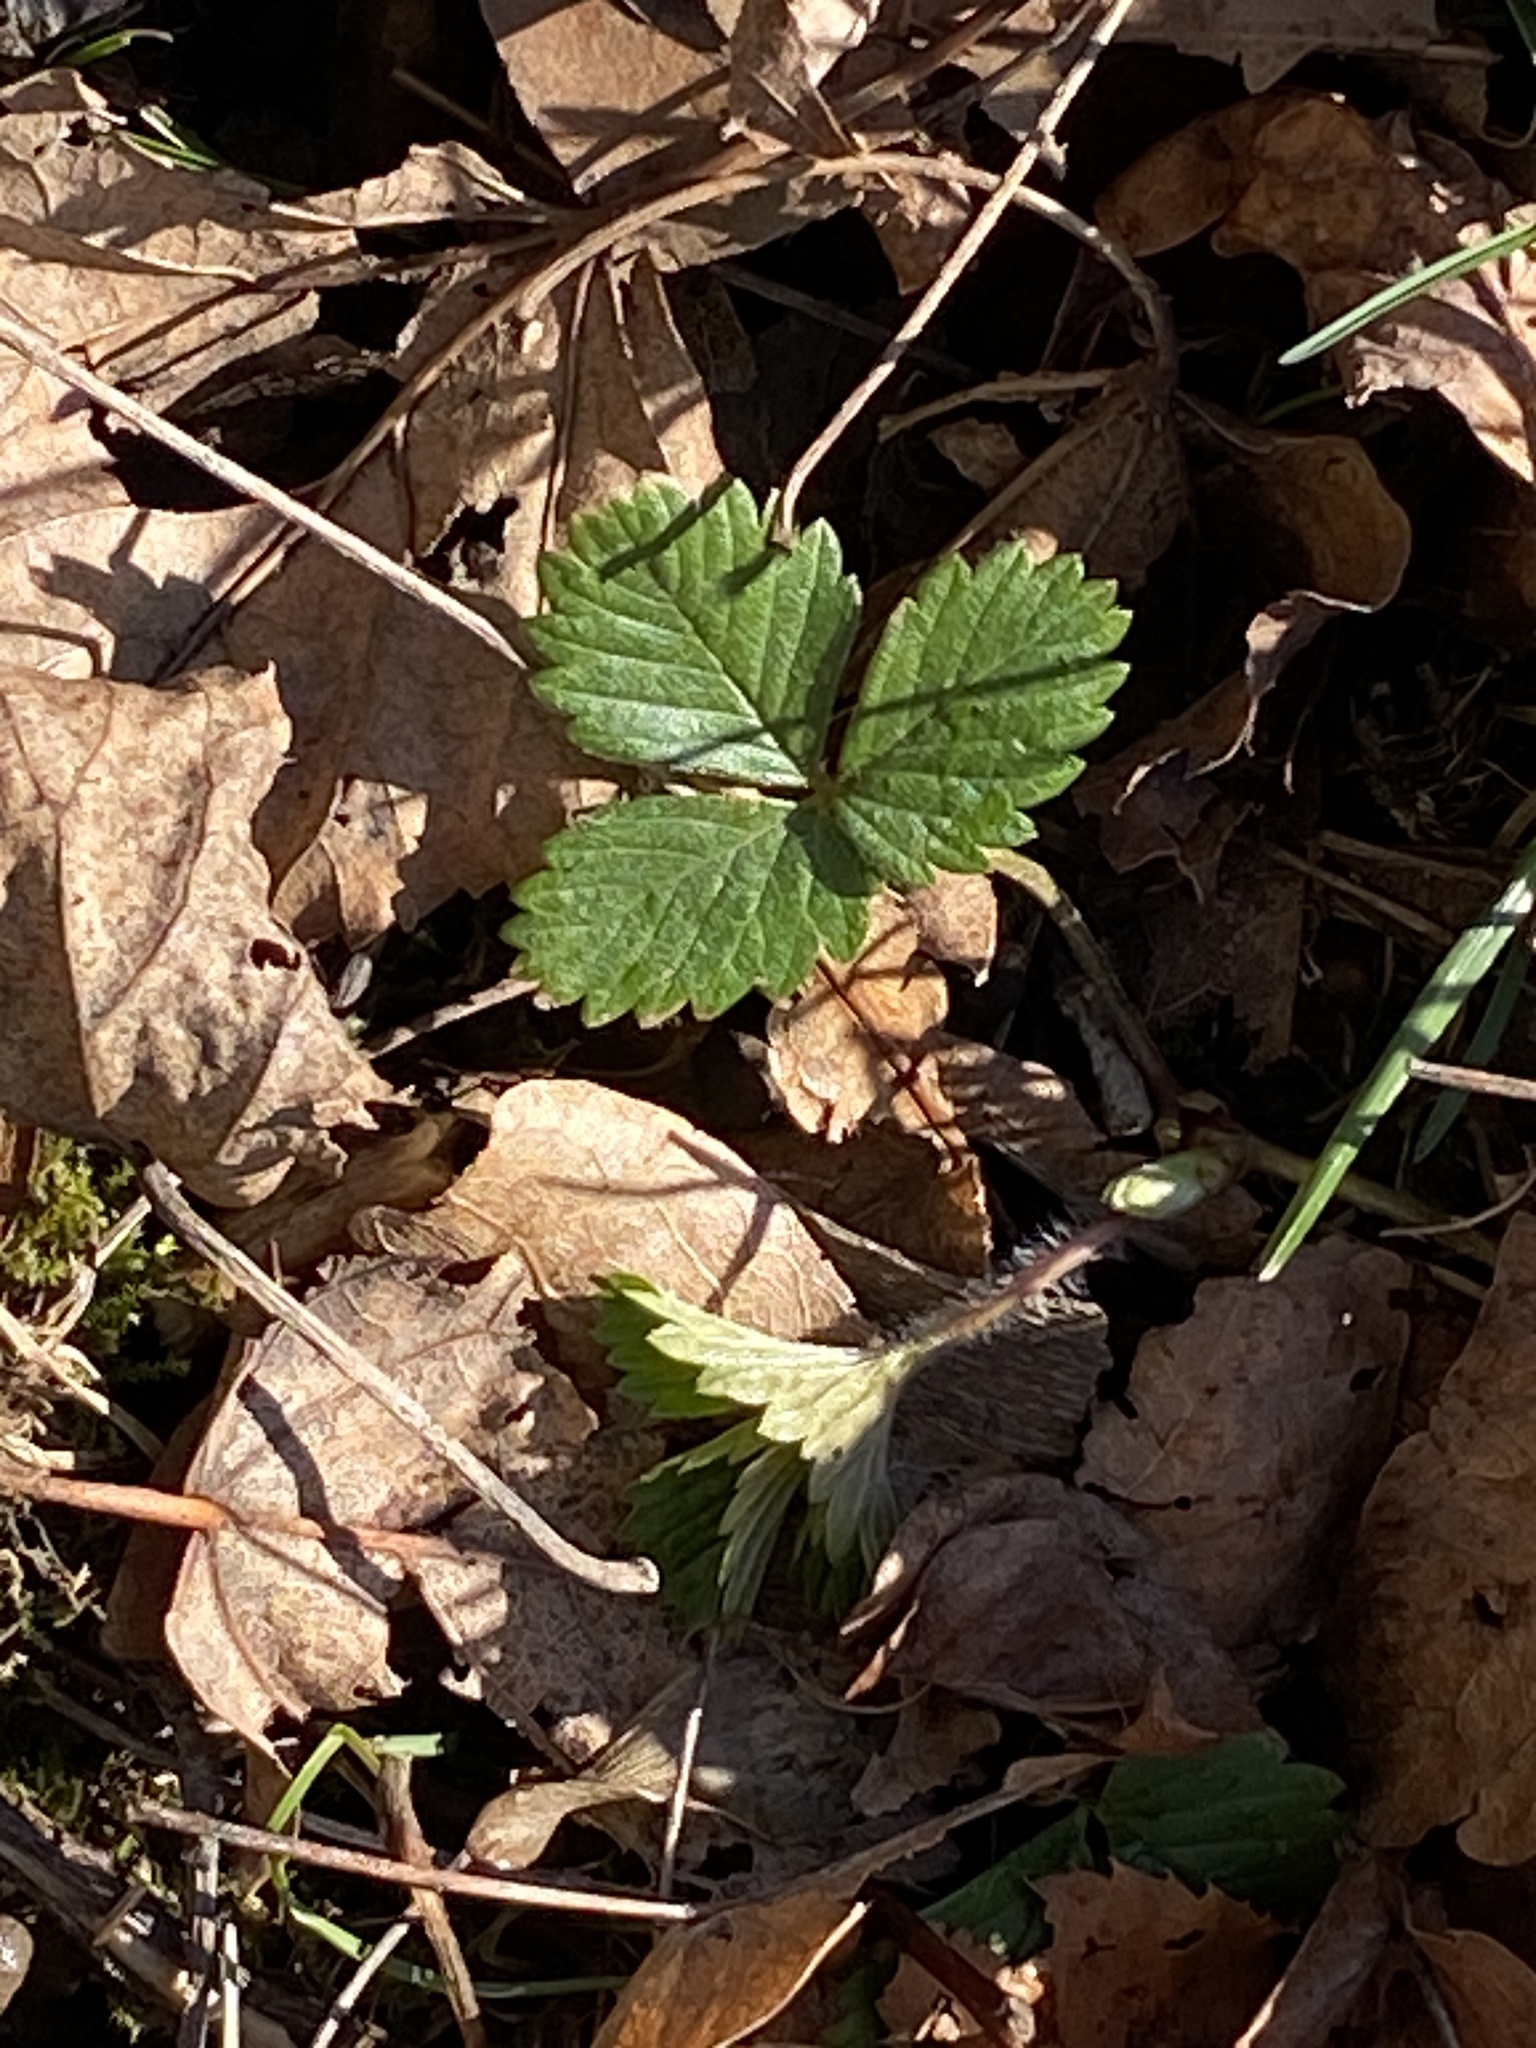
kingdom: Plantae
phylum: Tracheophyta
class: Magnoliopsida
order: Rosales
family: Rosaceae
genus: Potentilla
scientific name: Potentilla indica
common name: Yellow-flowered strawberry
